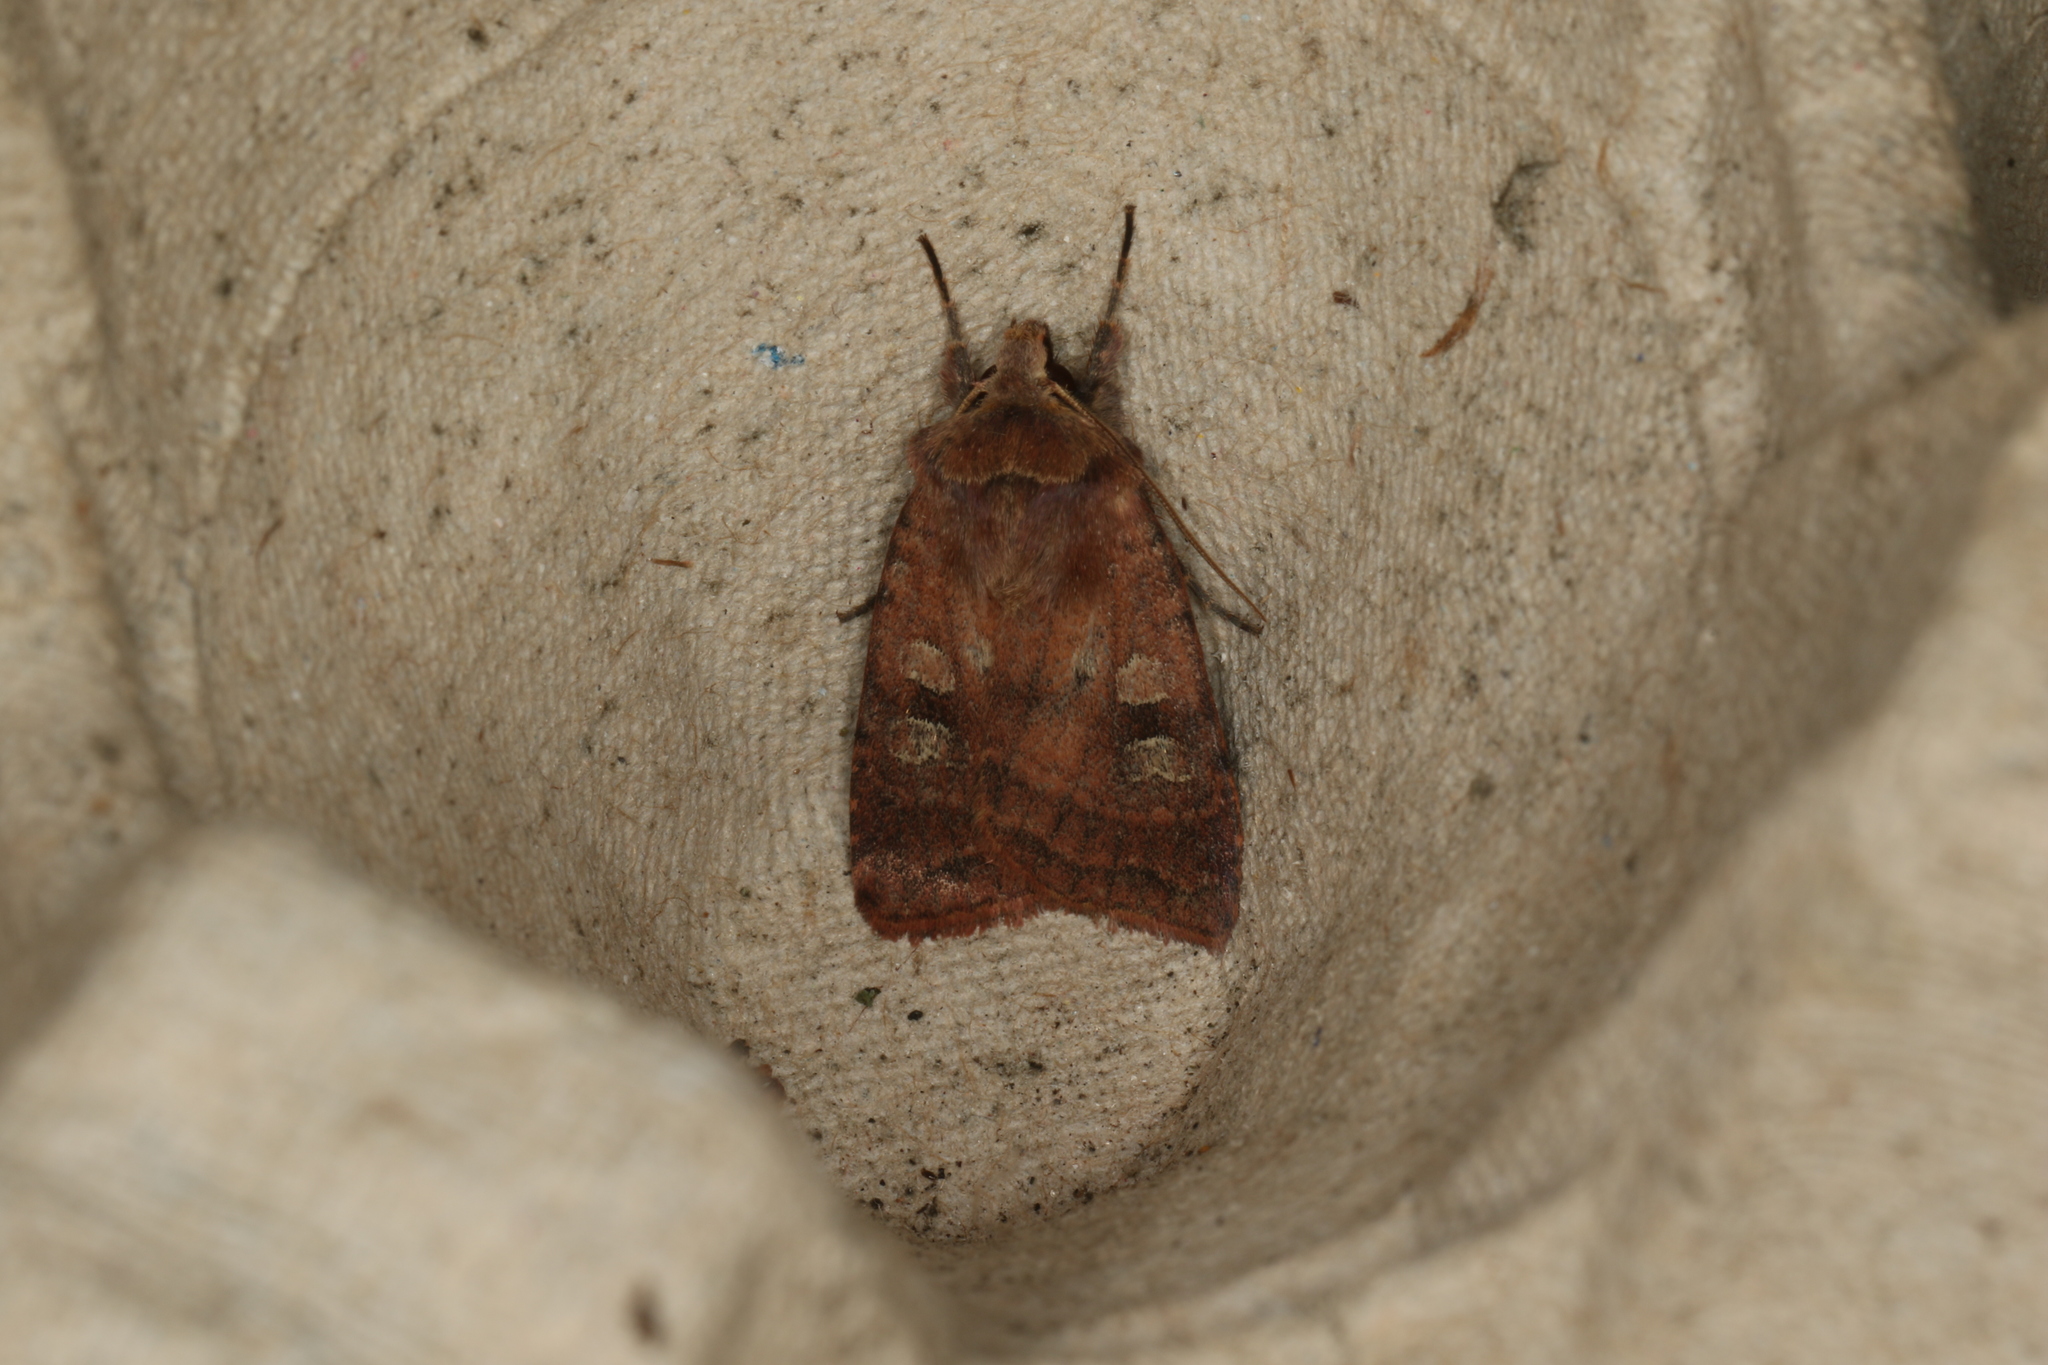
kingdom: Animalia
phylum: Arthropoda
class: Insecta
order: Lepidoptera
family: Noctuidae
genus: Diarsia
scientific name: Diarsia rubi
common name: Small square-spot
